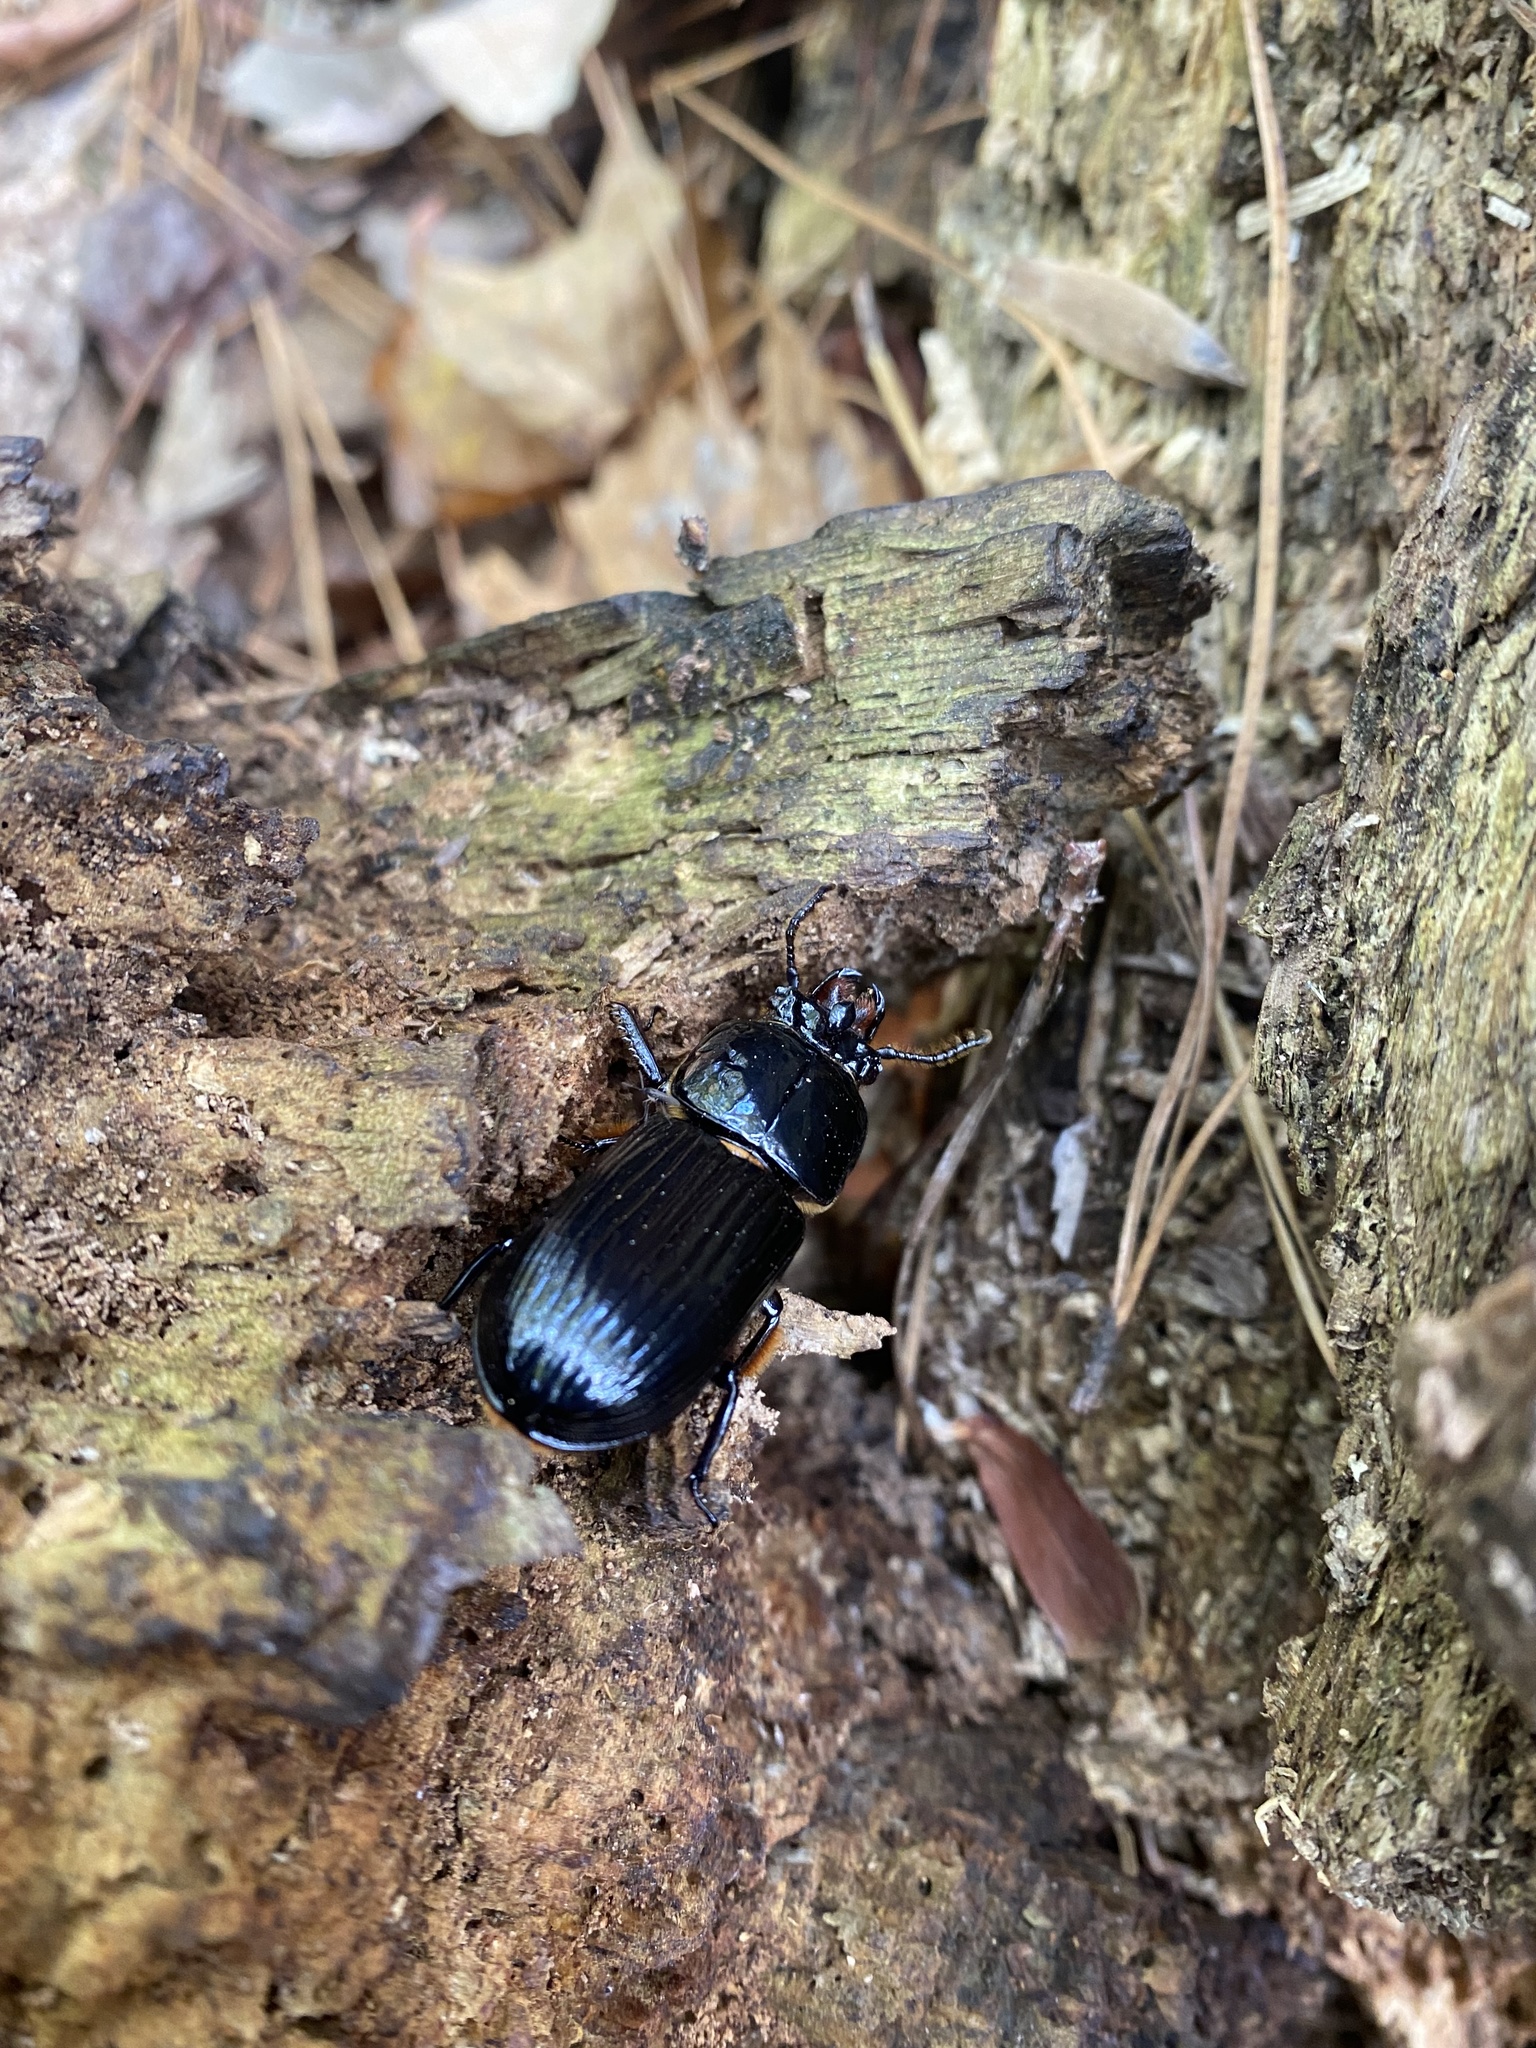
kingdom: Animalia
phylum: Arthropoda
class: Insecta
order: Coleoptera
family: Passalidae
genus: Odontotaenius
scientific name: Odontotaenius disjunctus
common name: Patent leather beetle
